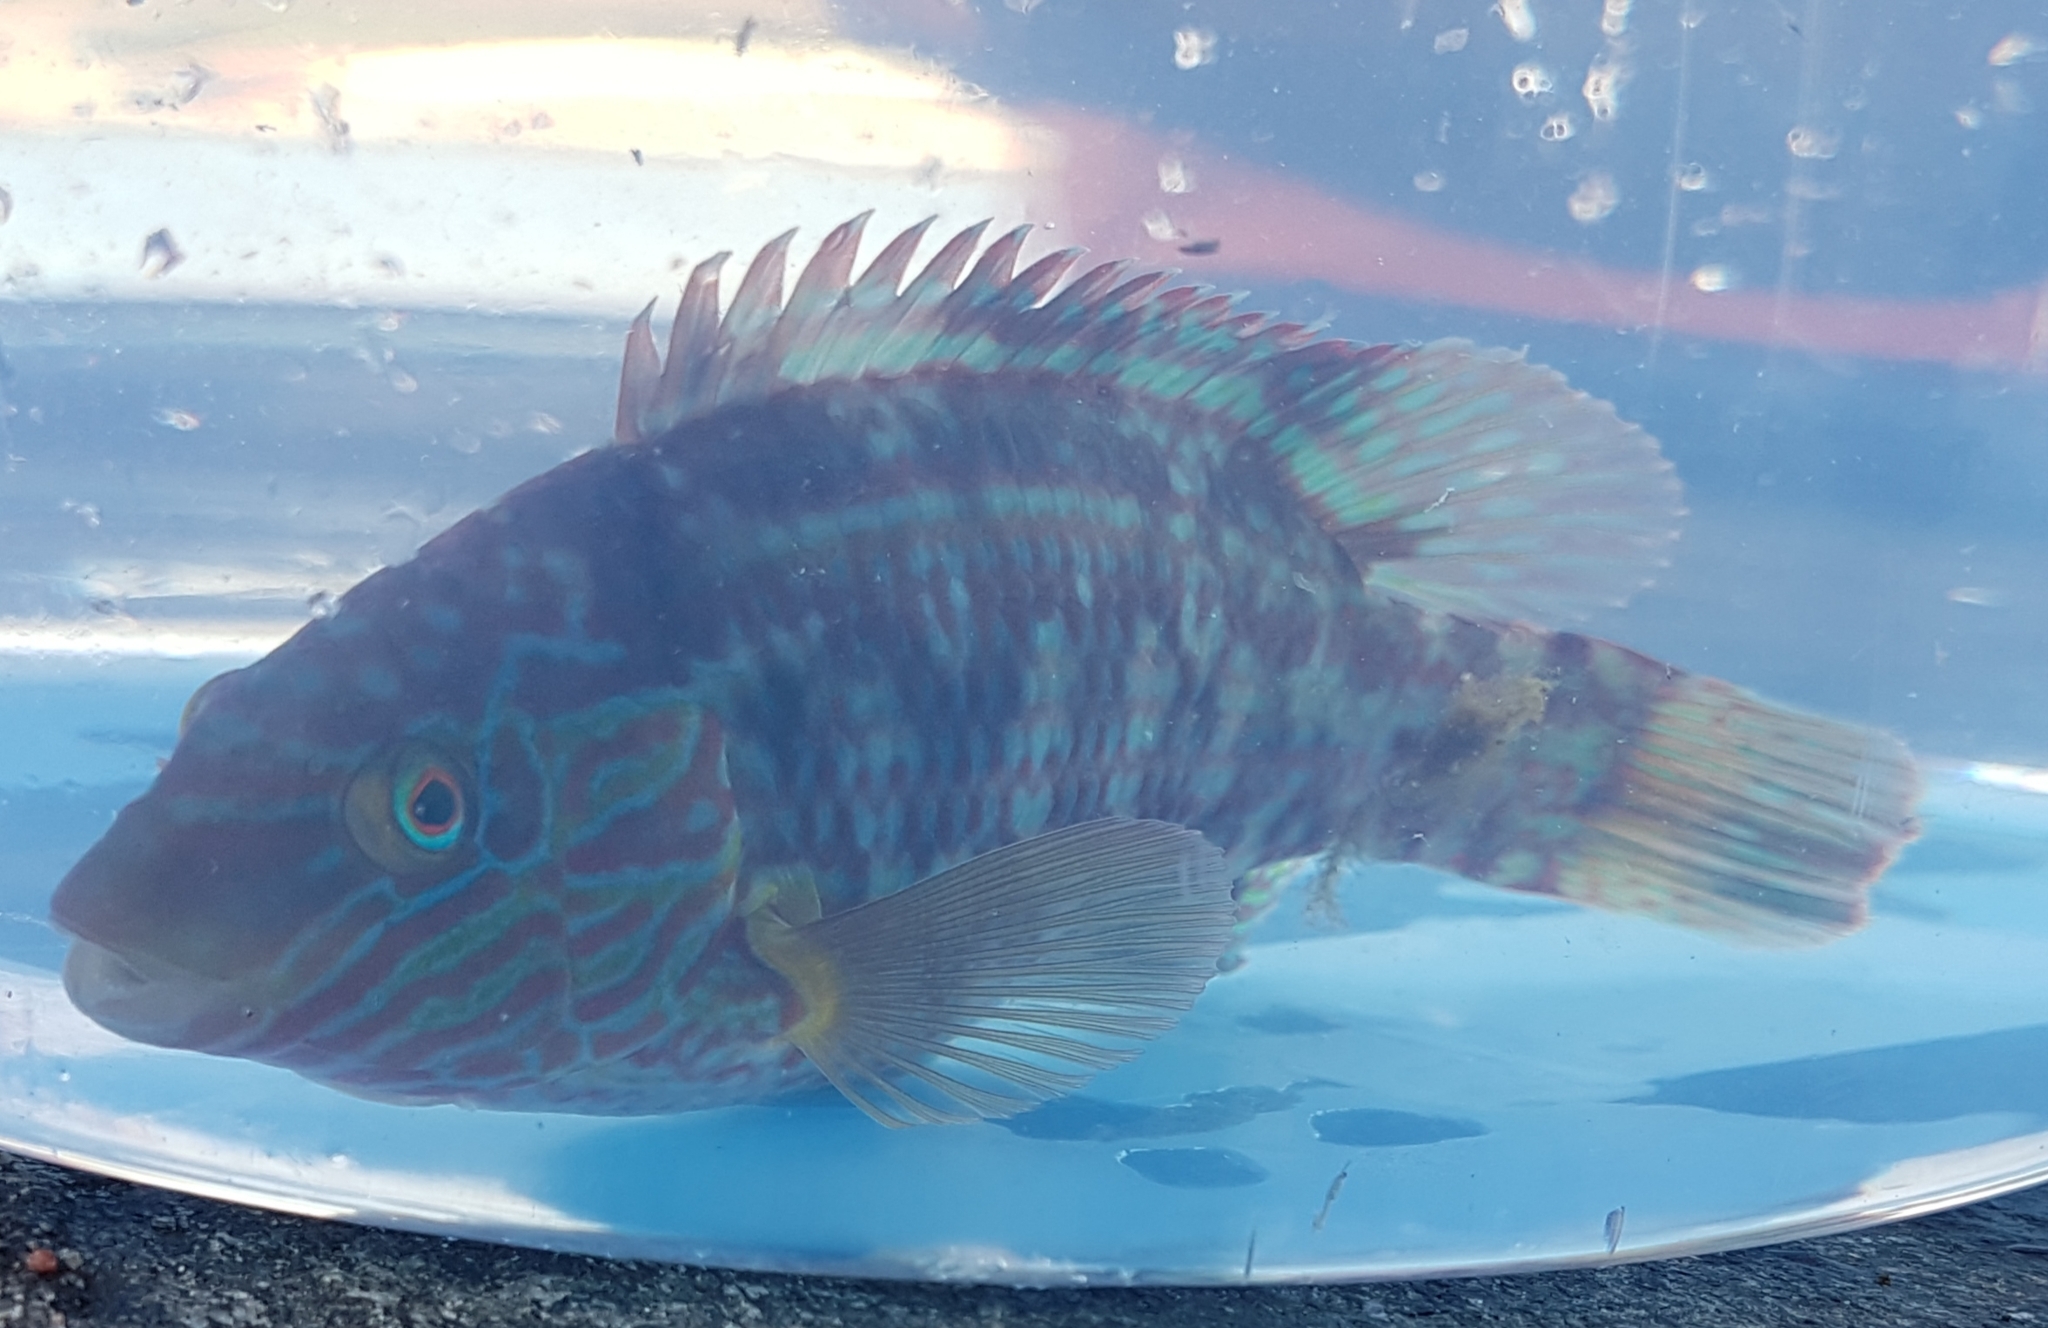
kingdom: Animalia
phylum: Chordata
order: Perciformes
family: Labridae
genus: Symphodus
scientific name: Symphodus melops
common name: Corkwing
